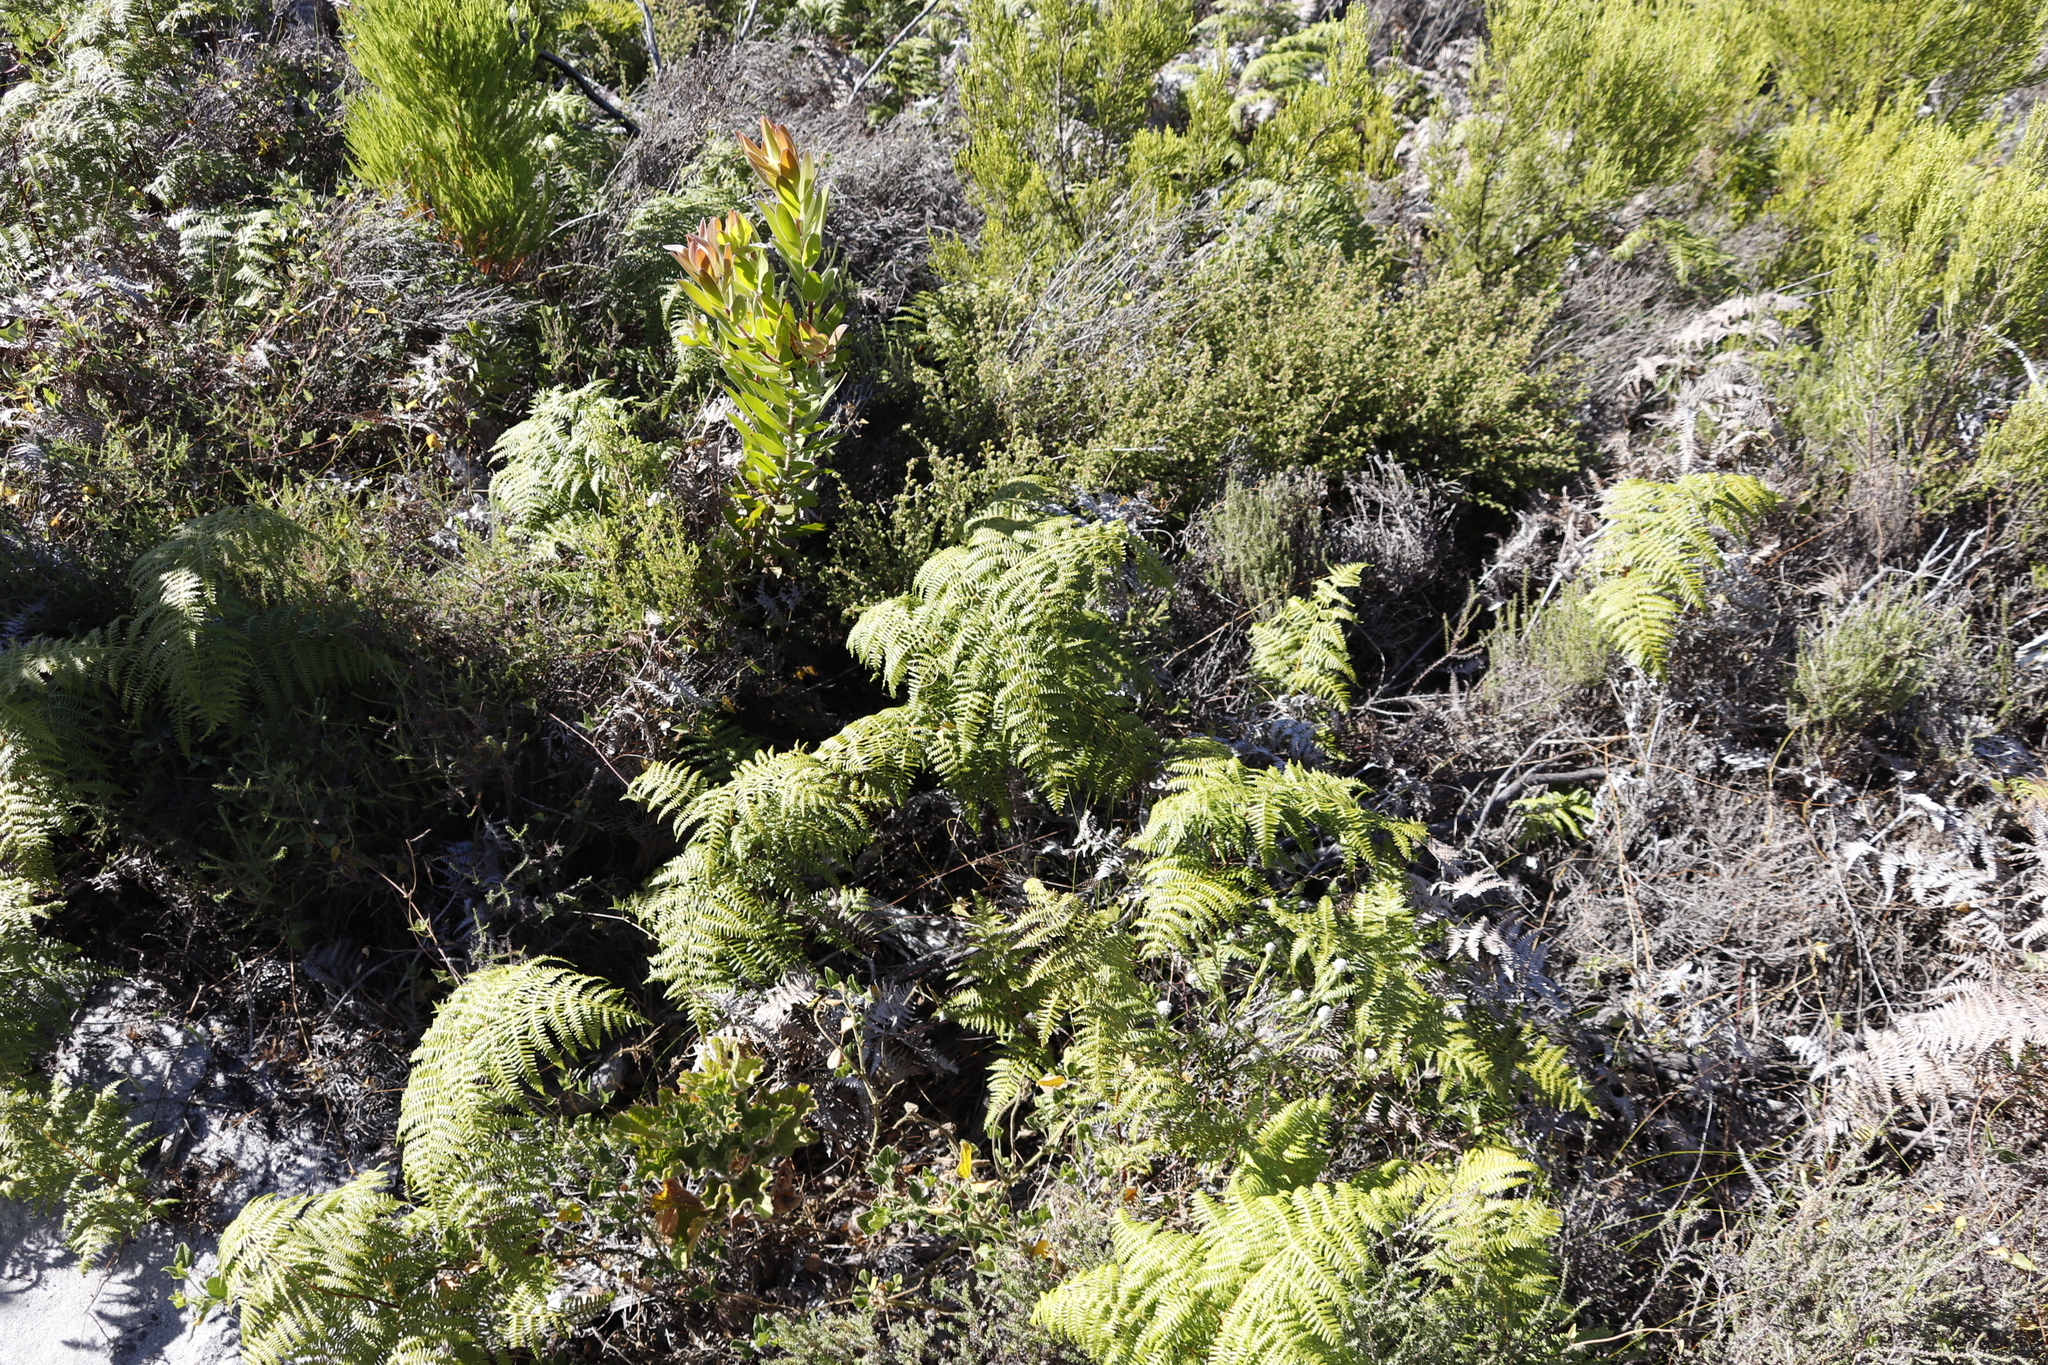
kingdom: Plantae
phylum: Tracheophyta
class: Polypodiopsida
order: Polypodiales
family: Dennstaedtiaceae
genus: Pteridium
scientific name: Pteridium aquilinum
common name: Bracken
